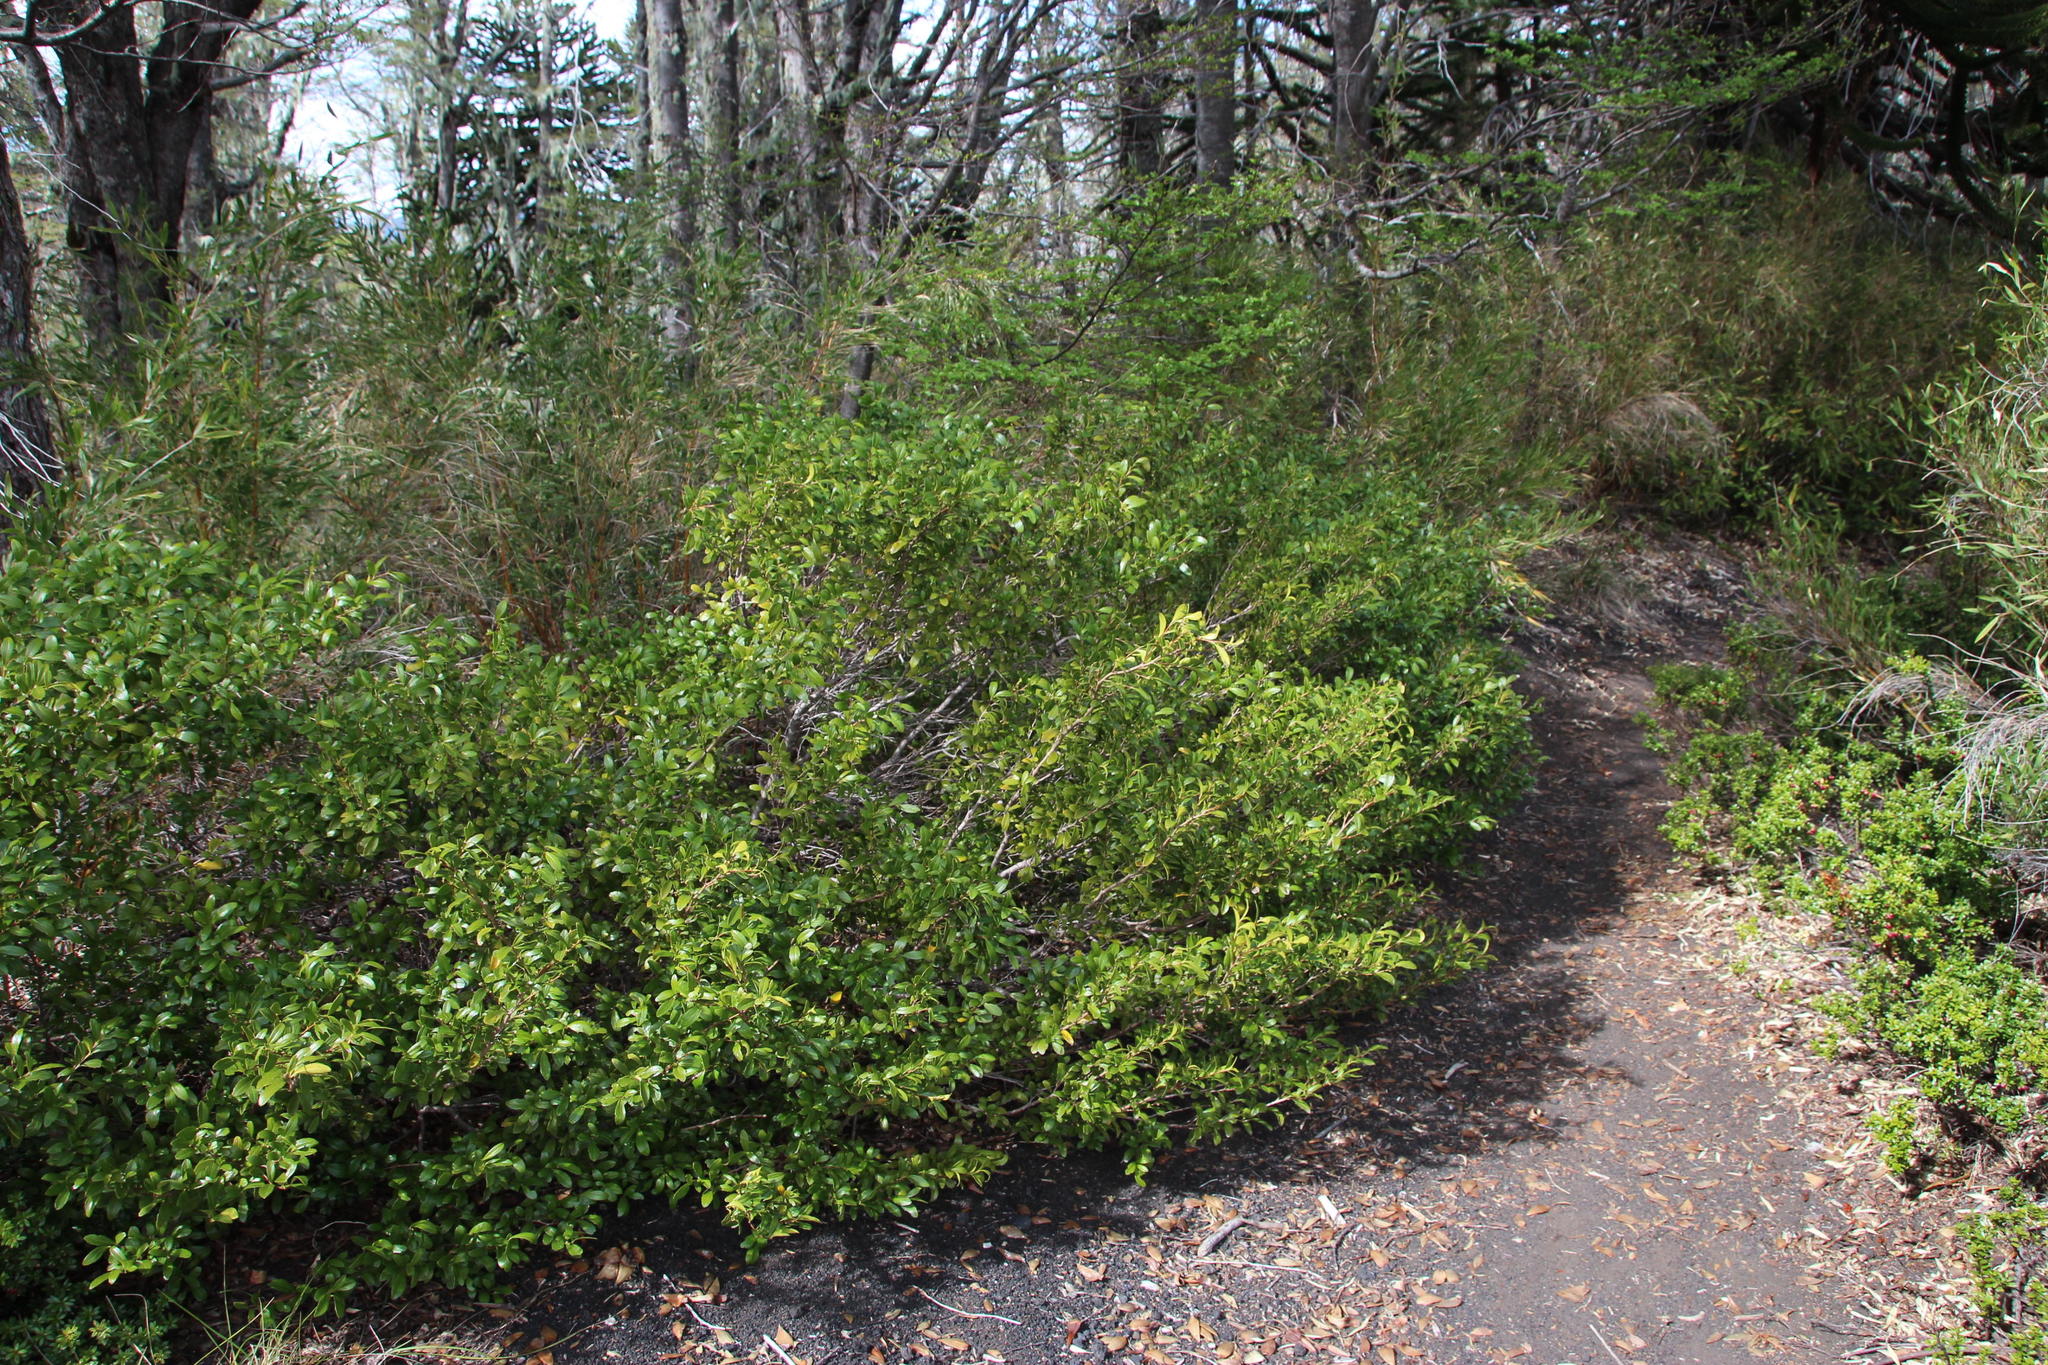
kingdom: Plantae
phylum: Tracheophyta
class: Magnoliopsida
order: Malpighiales
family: Salicaceae
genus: Azara
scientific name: Azara alpina
